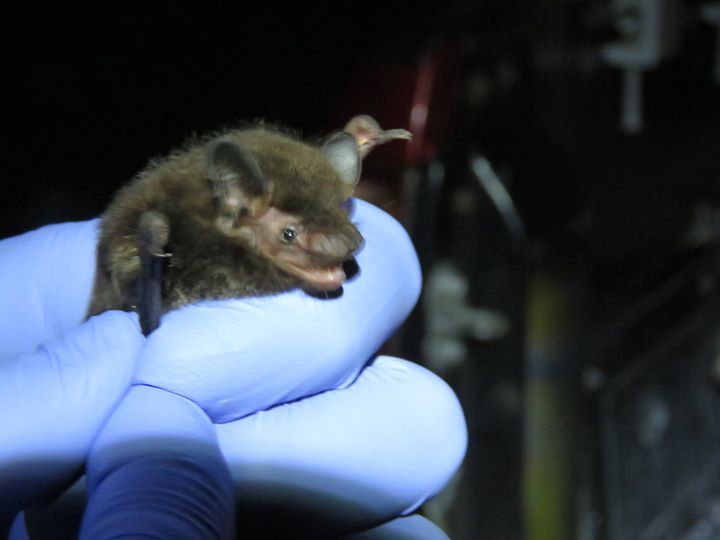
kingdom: Animalia
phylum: Chordata
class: Mammalia
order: Chiroptera
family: Vespertilionidae
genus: Lasionycteris
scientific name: Lasionycteris noctivagans
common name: Silver-haired bat
